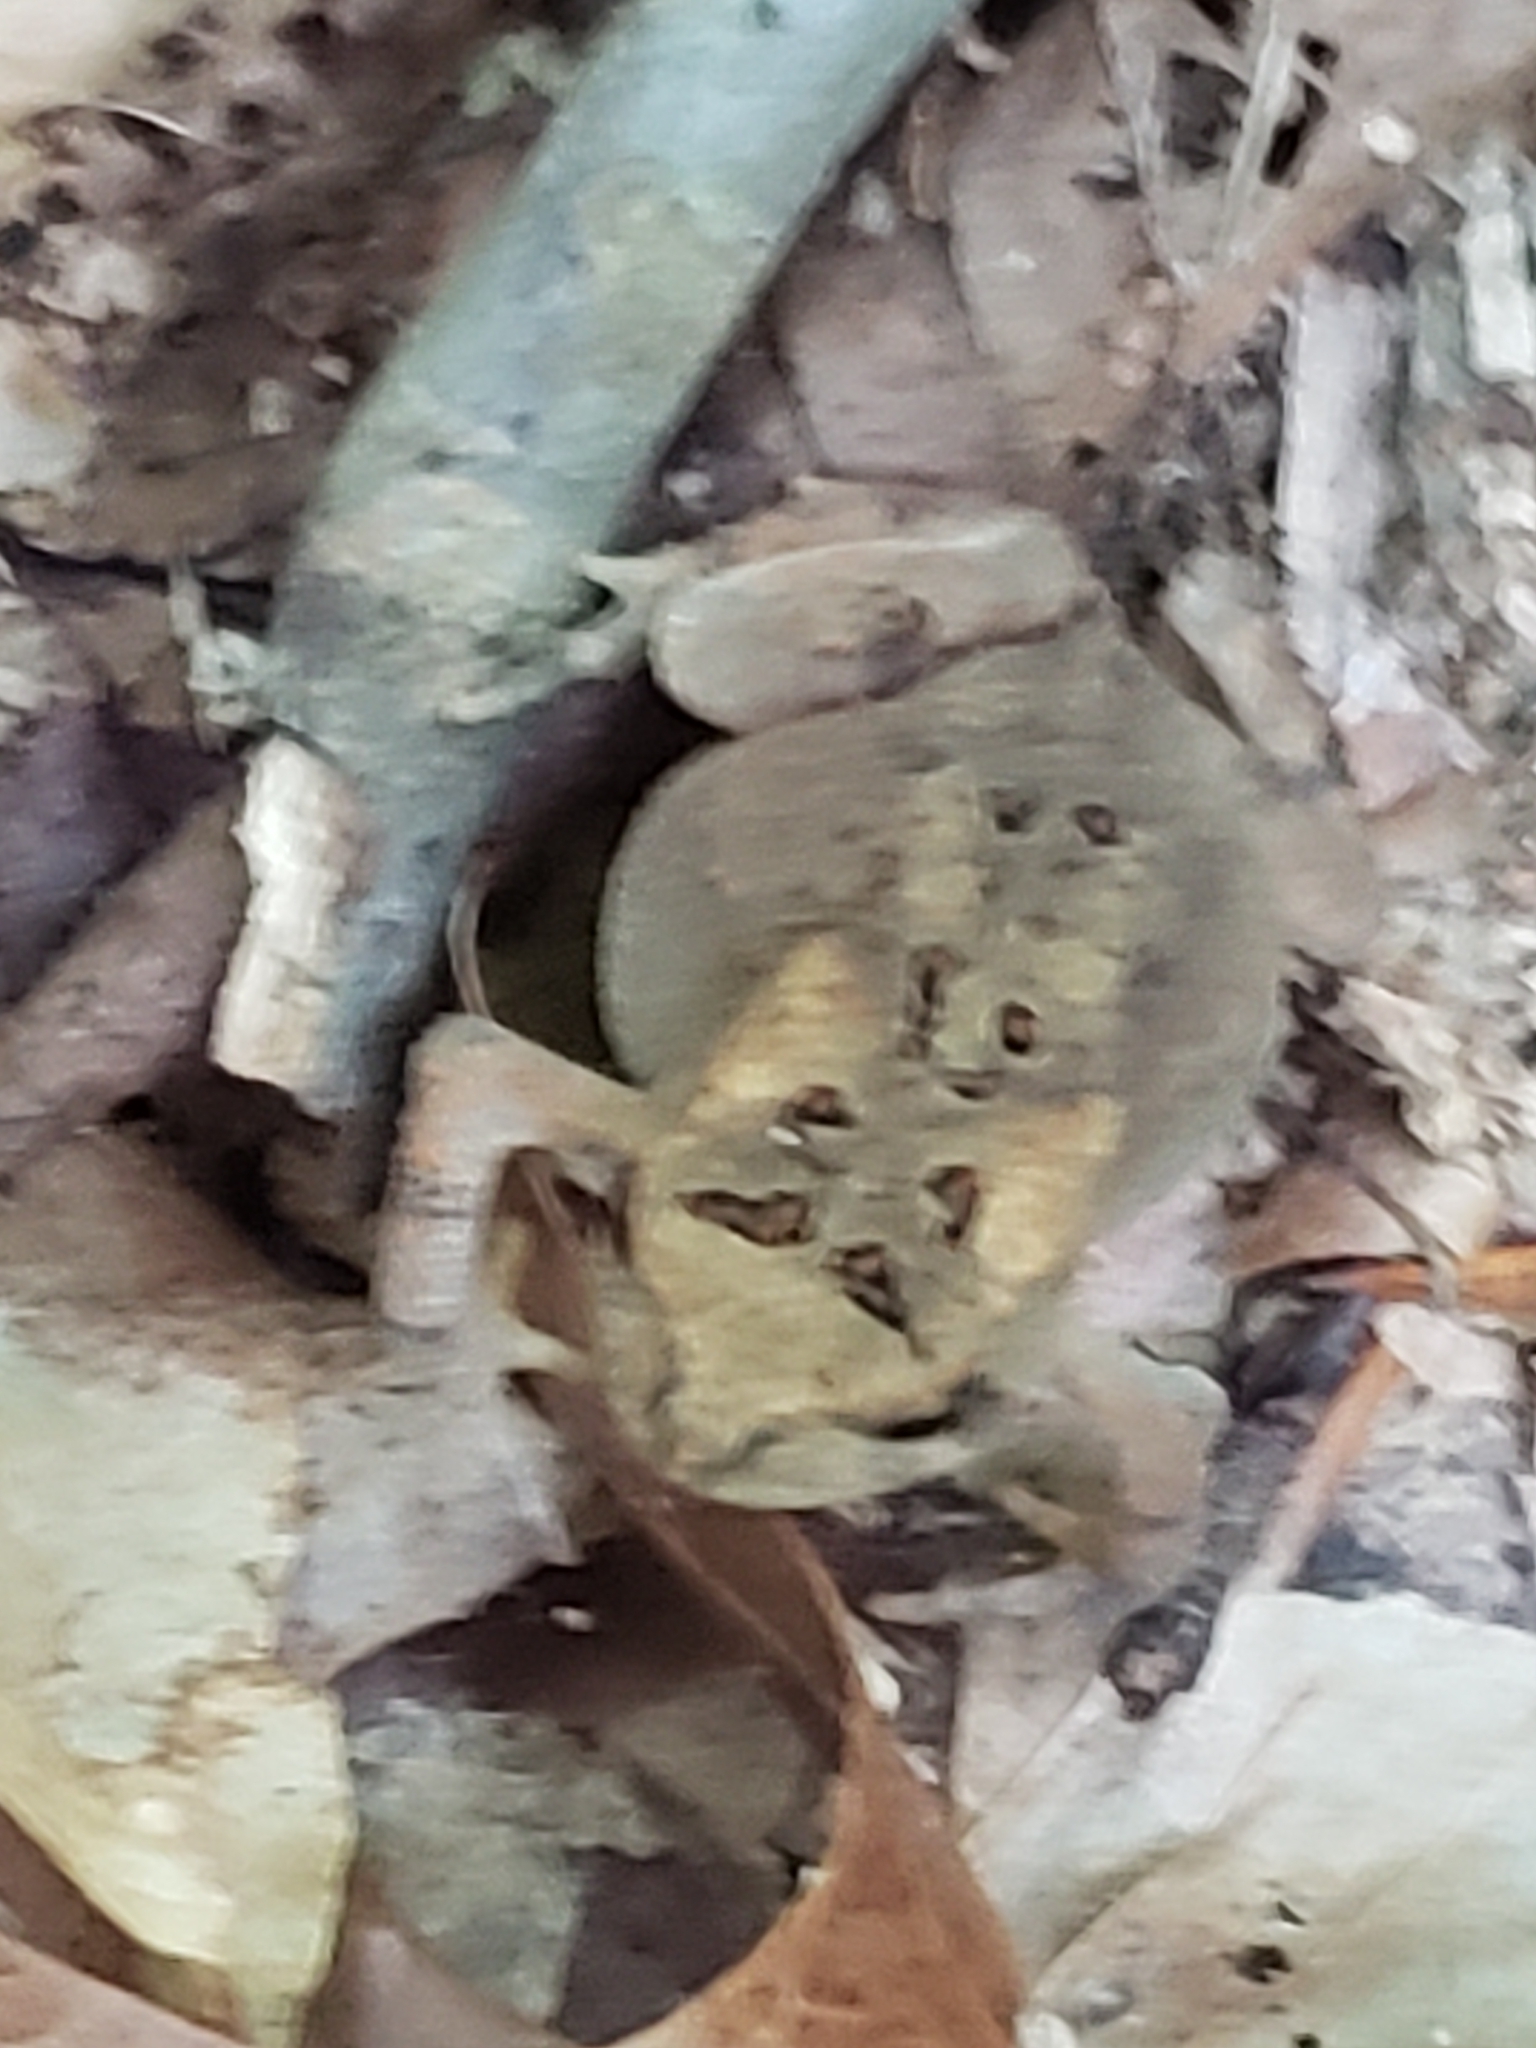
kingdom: Animalia
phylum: Chordata
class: Amphibia
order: Anura
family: Bufonidae
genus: Anaxyrus
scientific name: Anaxyrus americanus
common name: American toad
